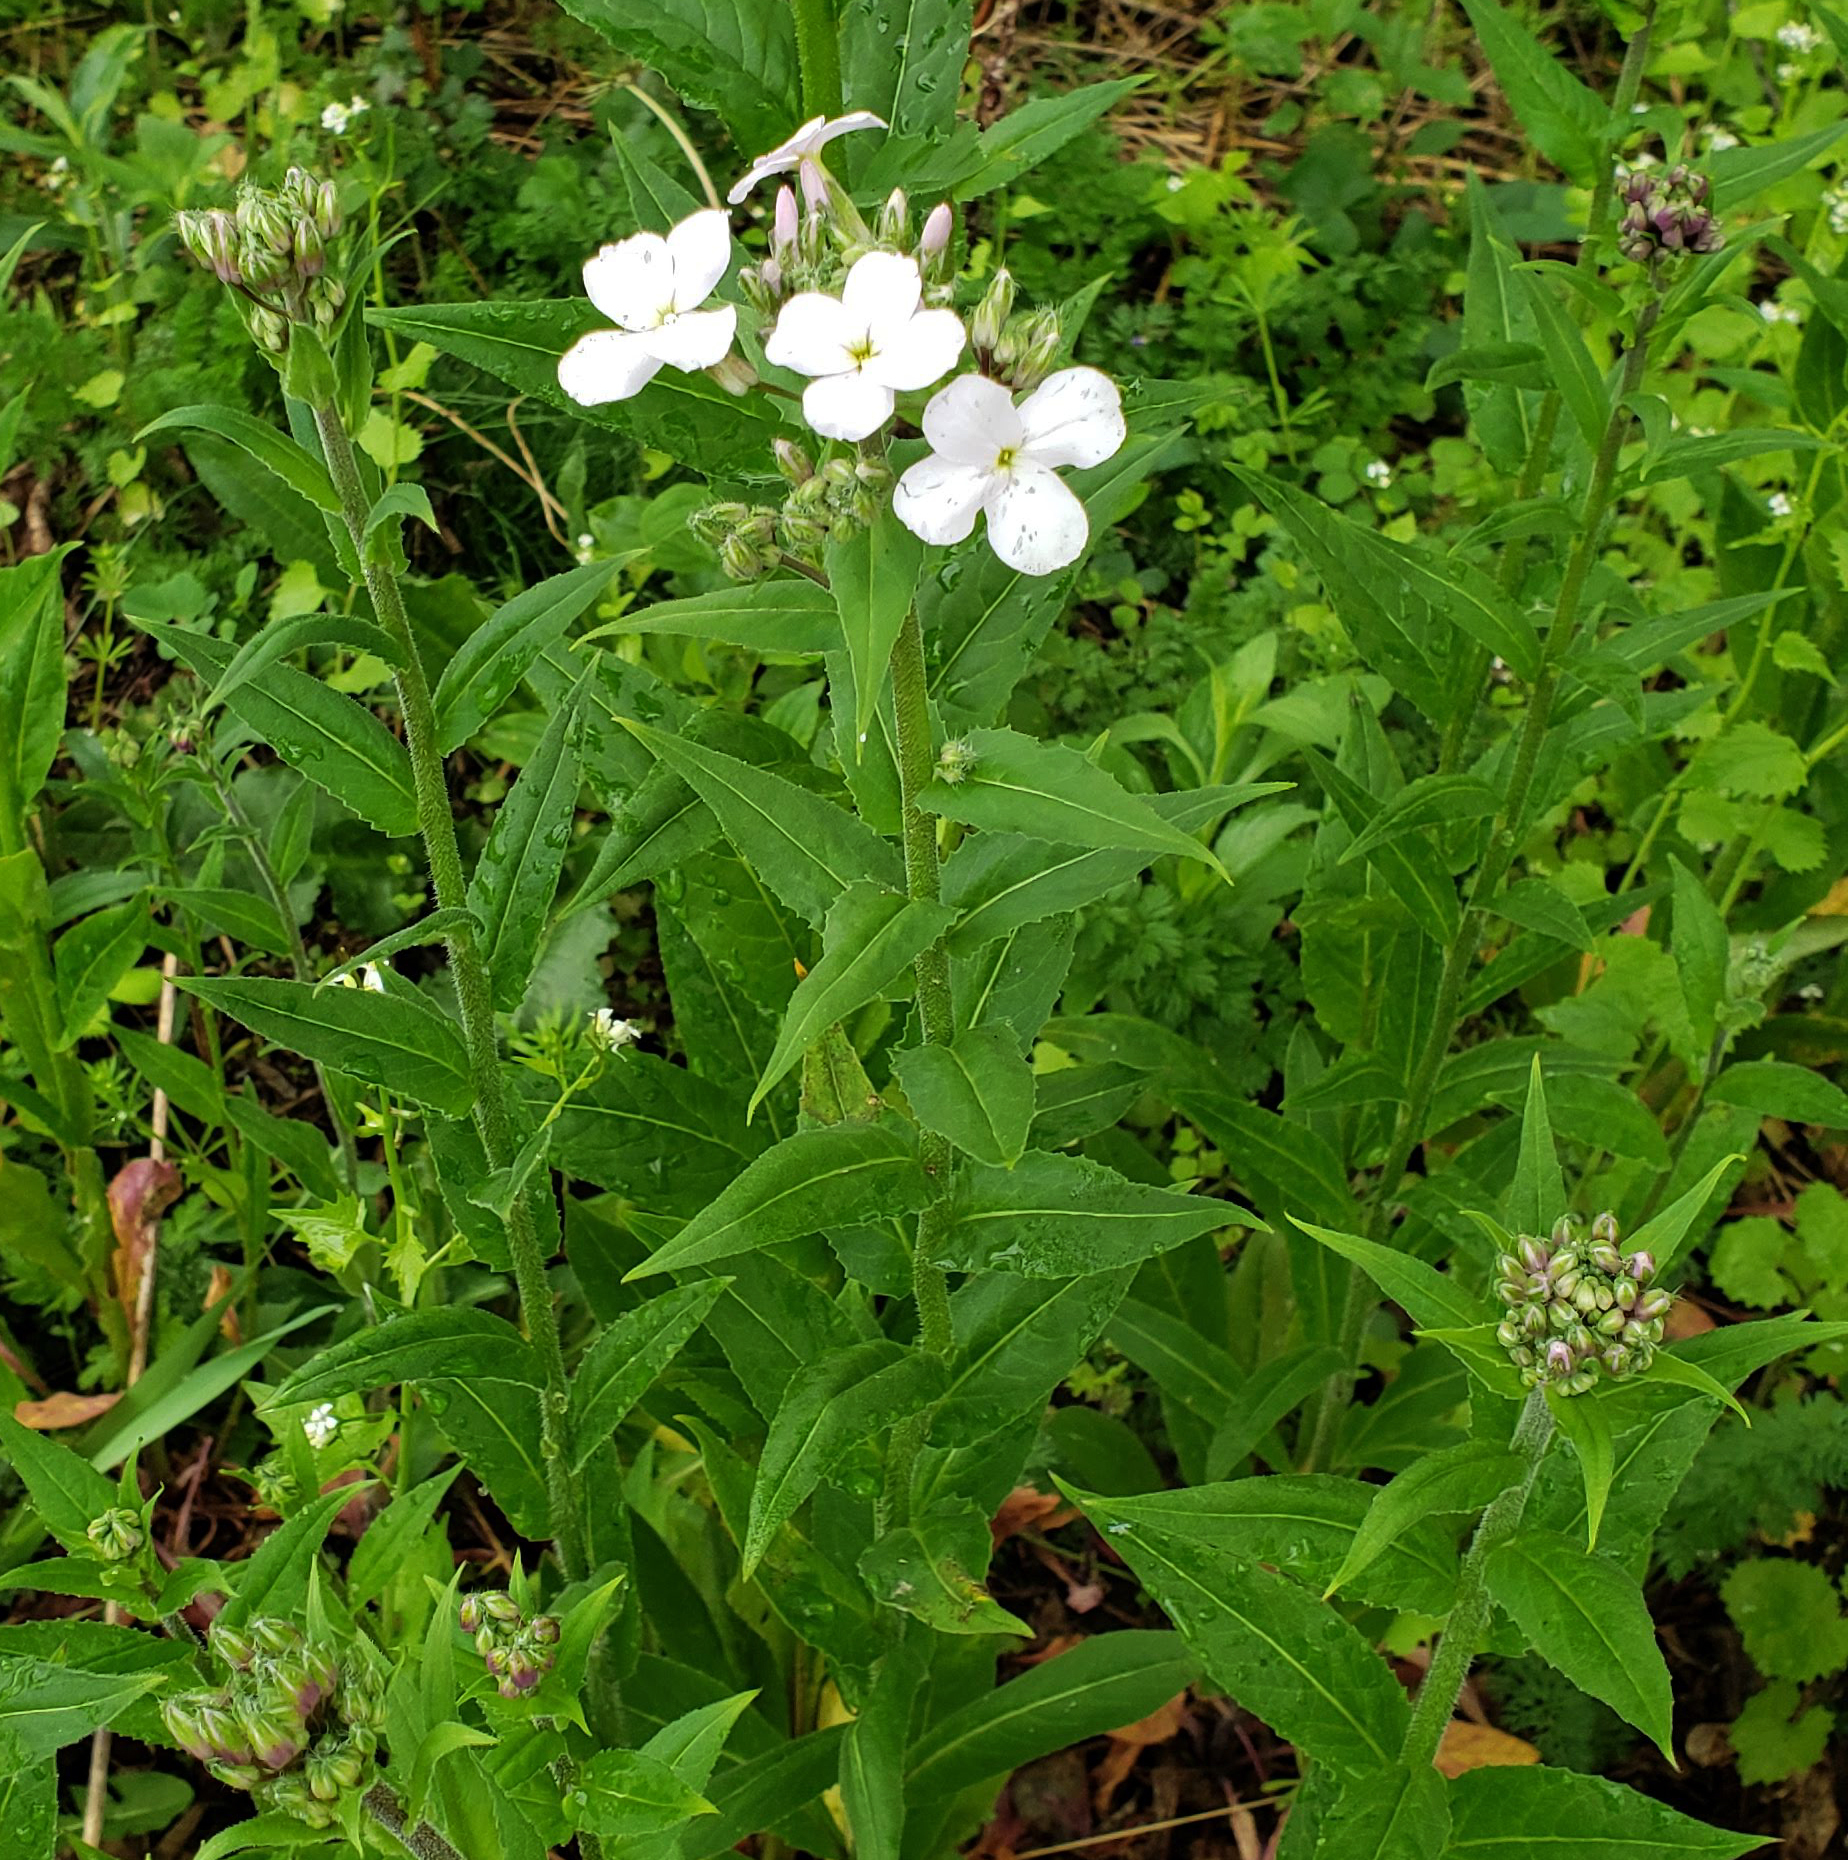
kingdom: Plantae
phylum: Tracheophyta
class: Magnoliopsida
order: Brassicales
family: Brassicaceae
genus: Hesperis
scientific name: Hesperis matronalis
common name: Dame's-violet
